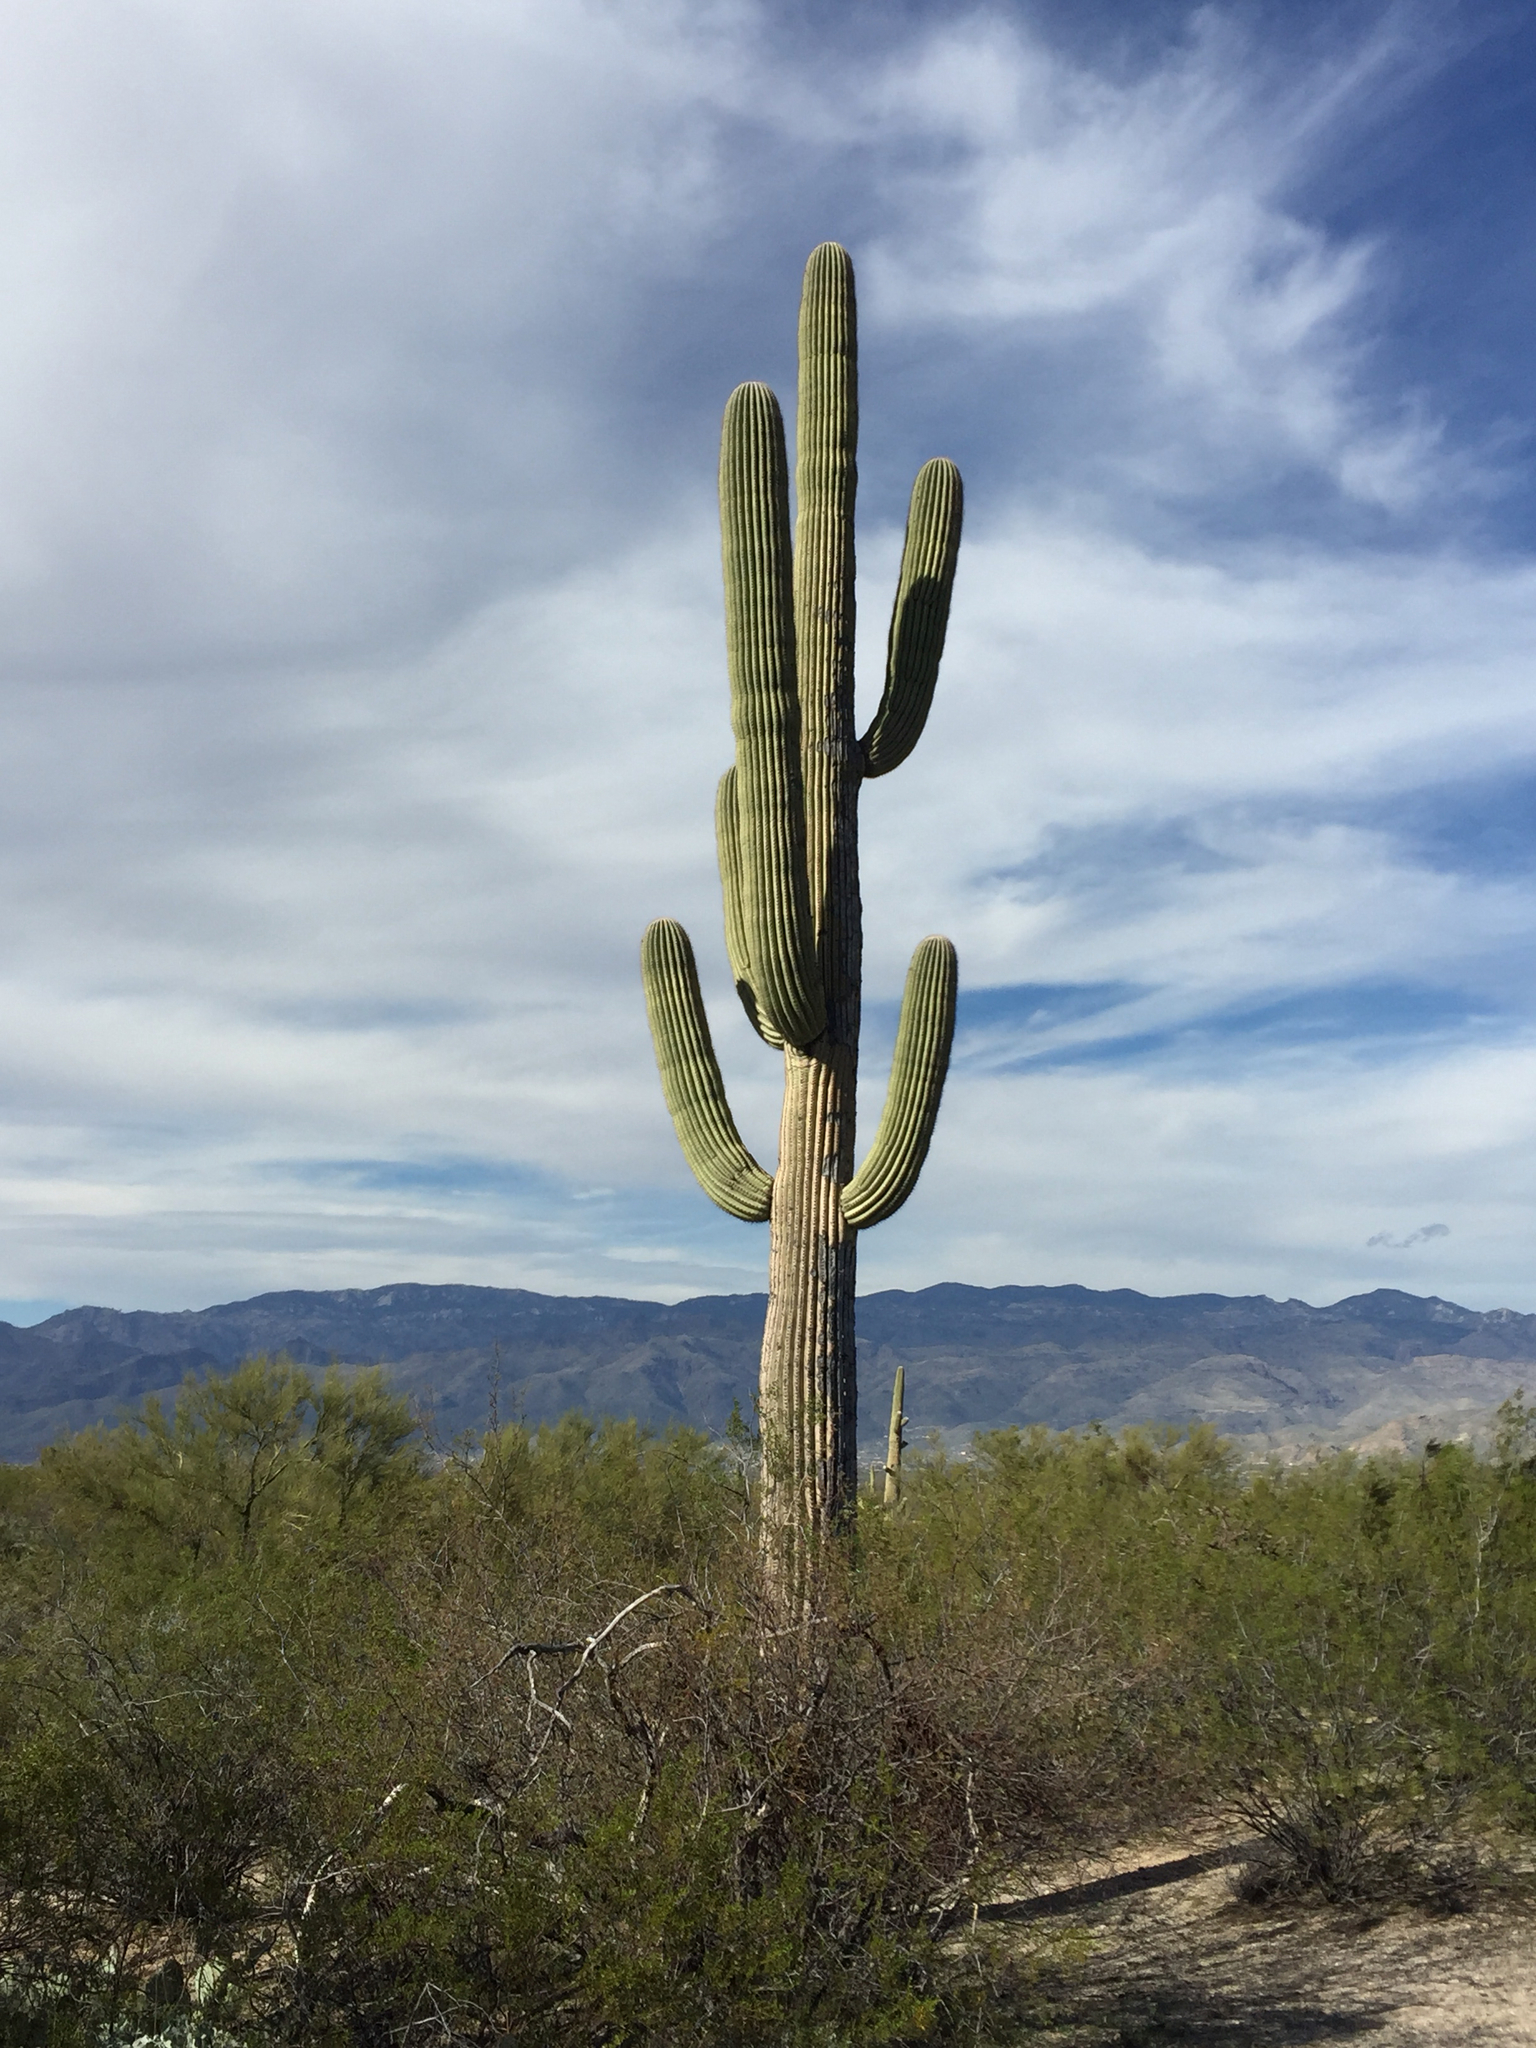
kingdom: Plantae
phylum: Tracheophyta
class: Magnoliopsida
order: Caryophyllales
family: Cactaceae
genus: Carnegiea
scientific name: Carnegiea gigantea
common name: Saguaro
